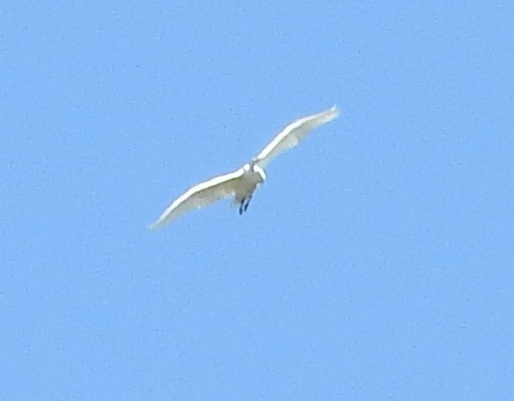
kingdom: Animalia
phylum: Chordata
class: Aves
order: Pelecaniformes
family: Ardeidae
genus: Ardea
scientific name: Ardea alba
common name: Great egret
